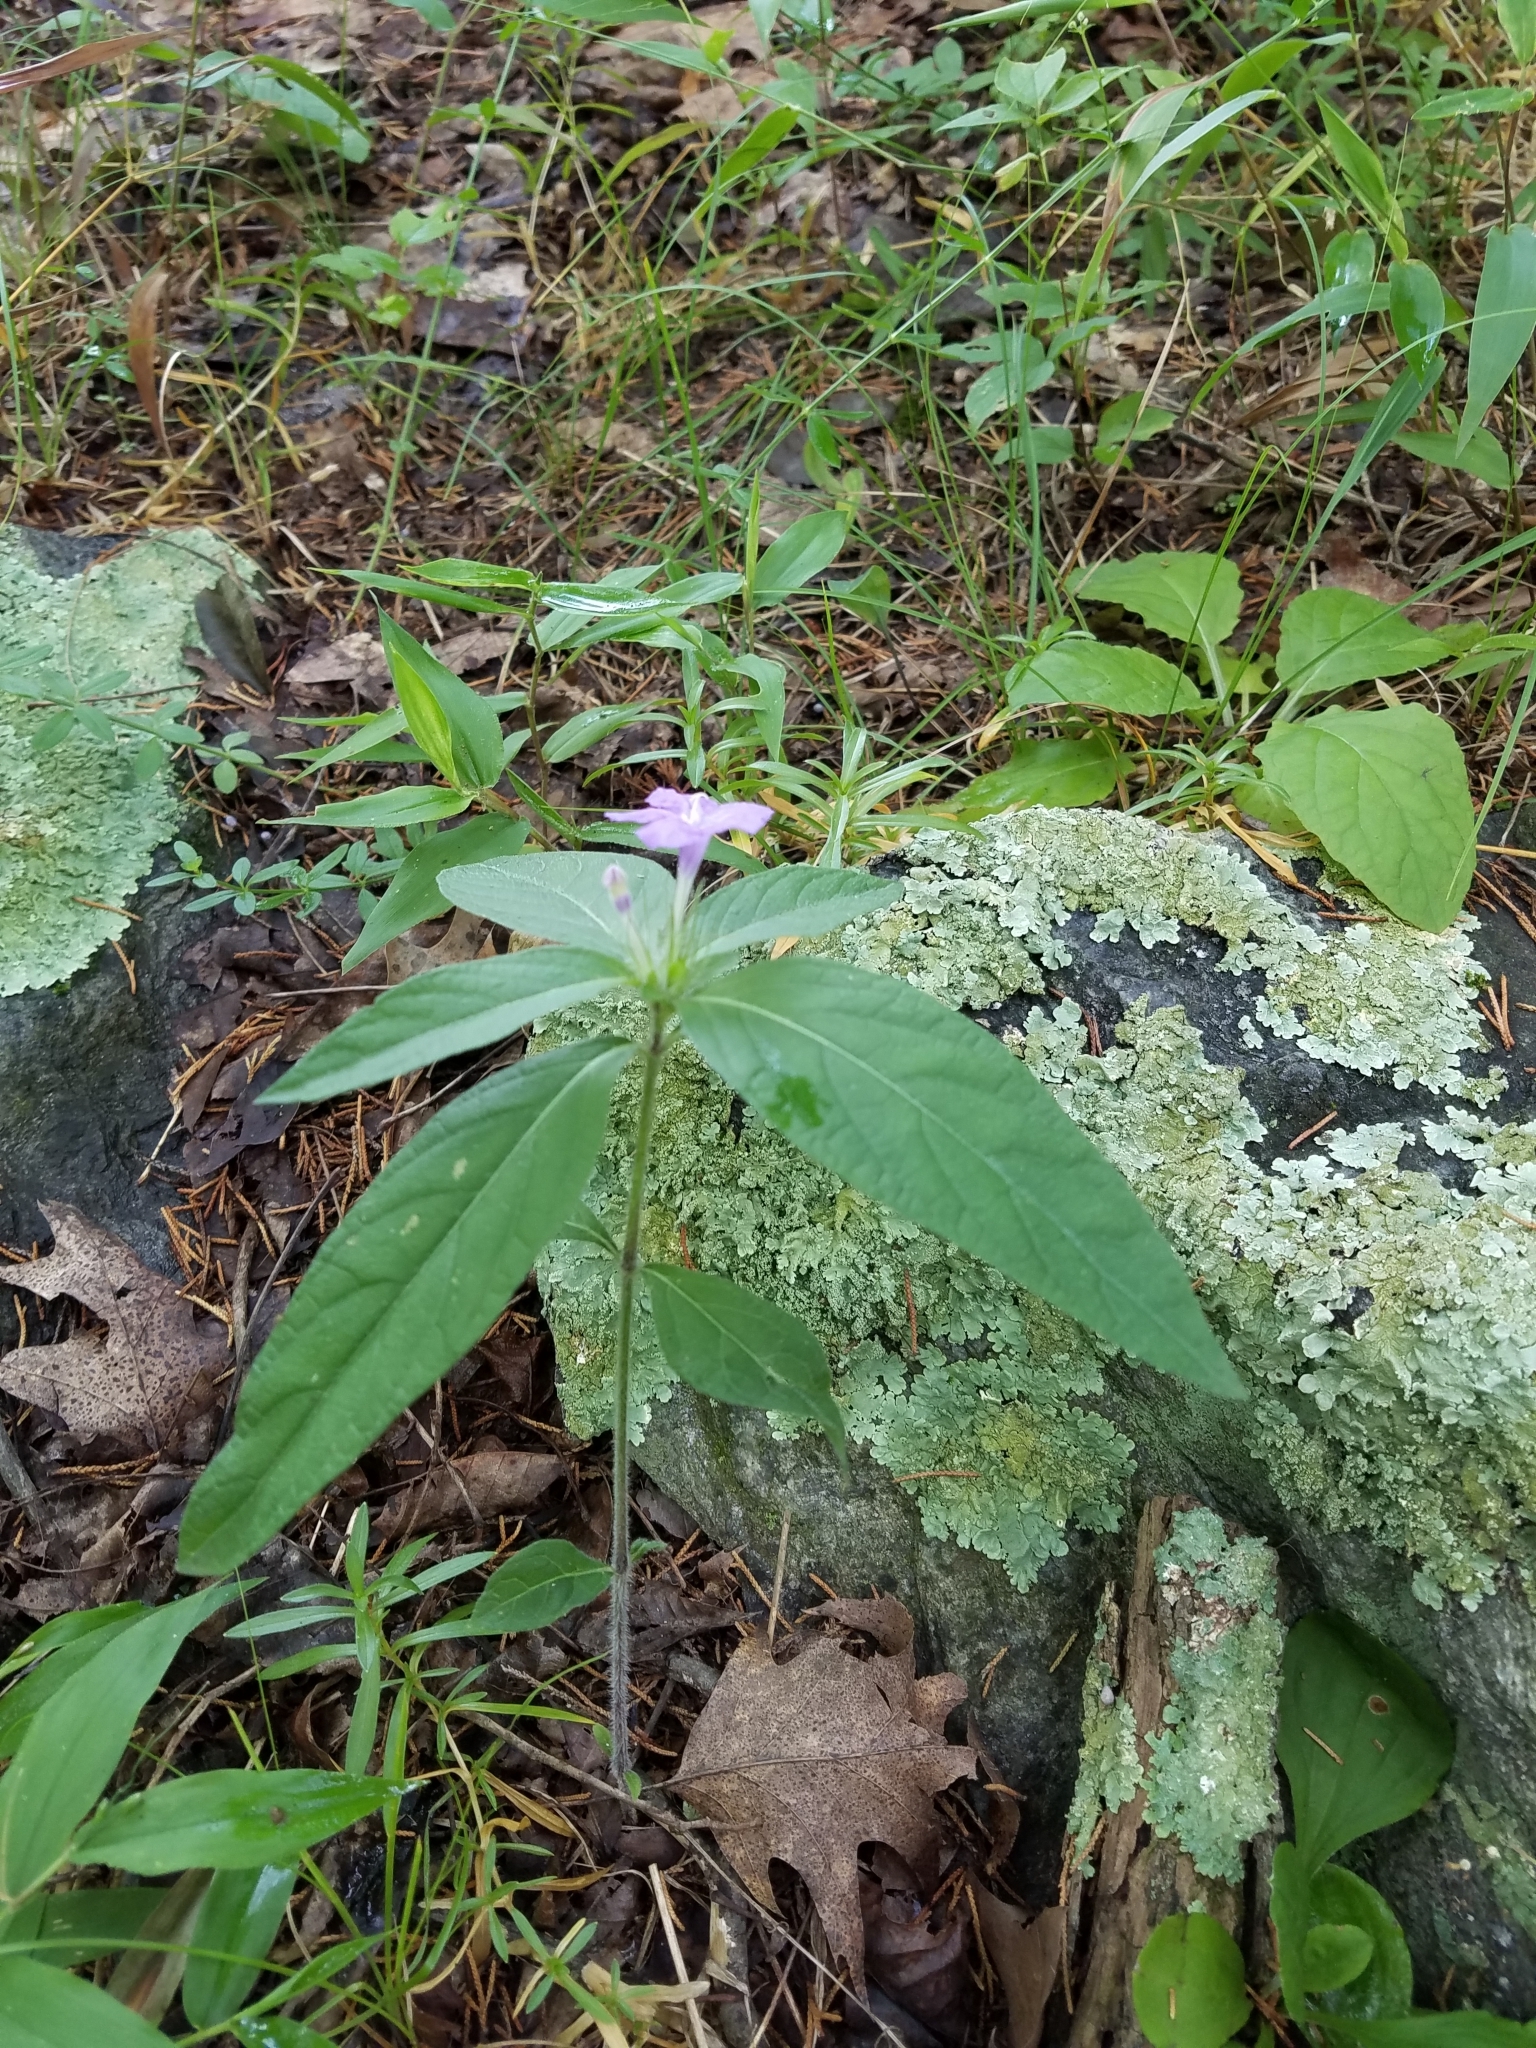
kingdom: Plantae
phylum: Tracheophyta
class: Magnoliopsida
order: Lamiales
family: Acanthaceae
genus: Ruellia
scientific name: Ruellia caroliniensis
